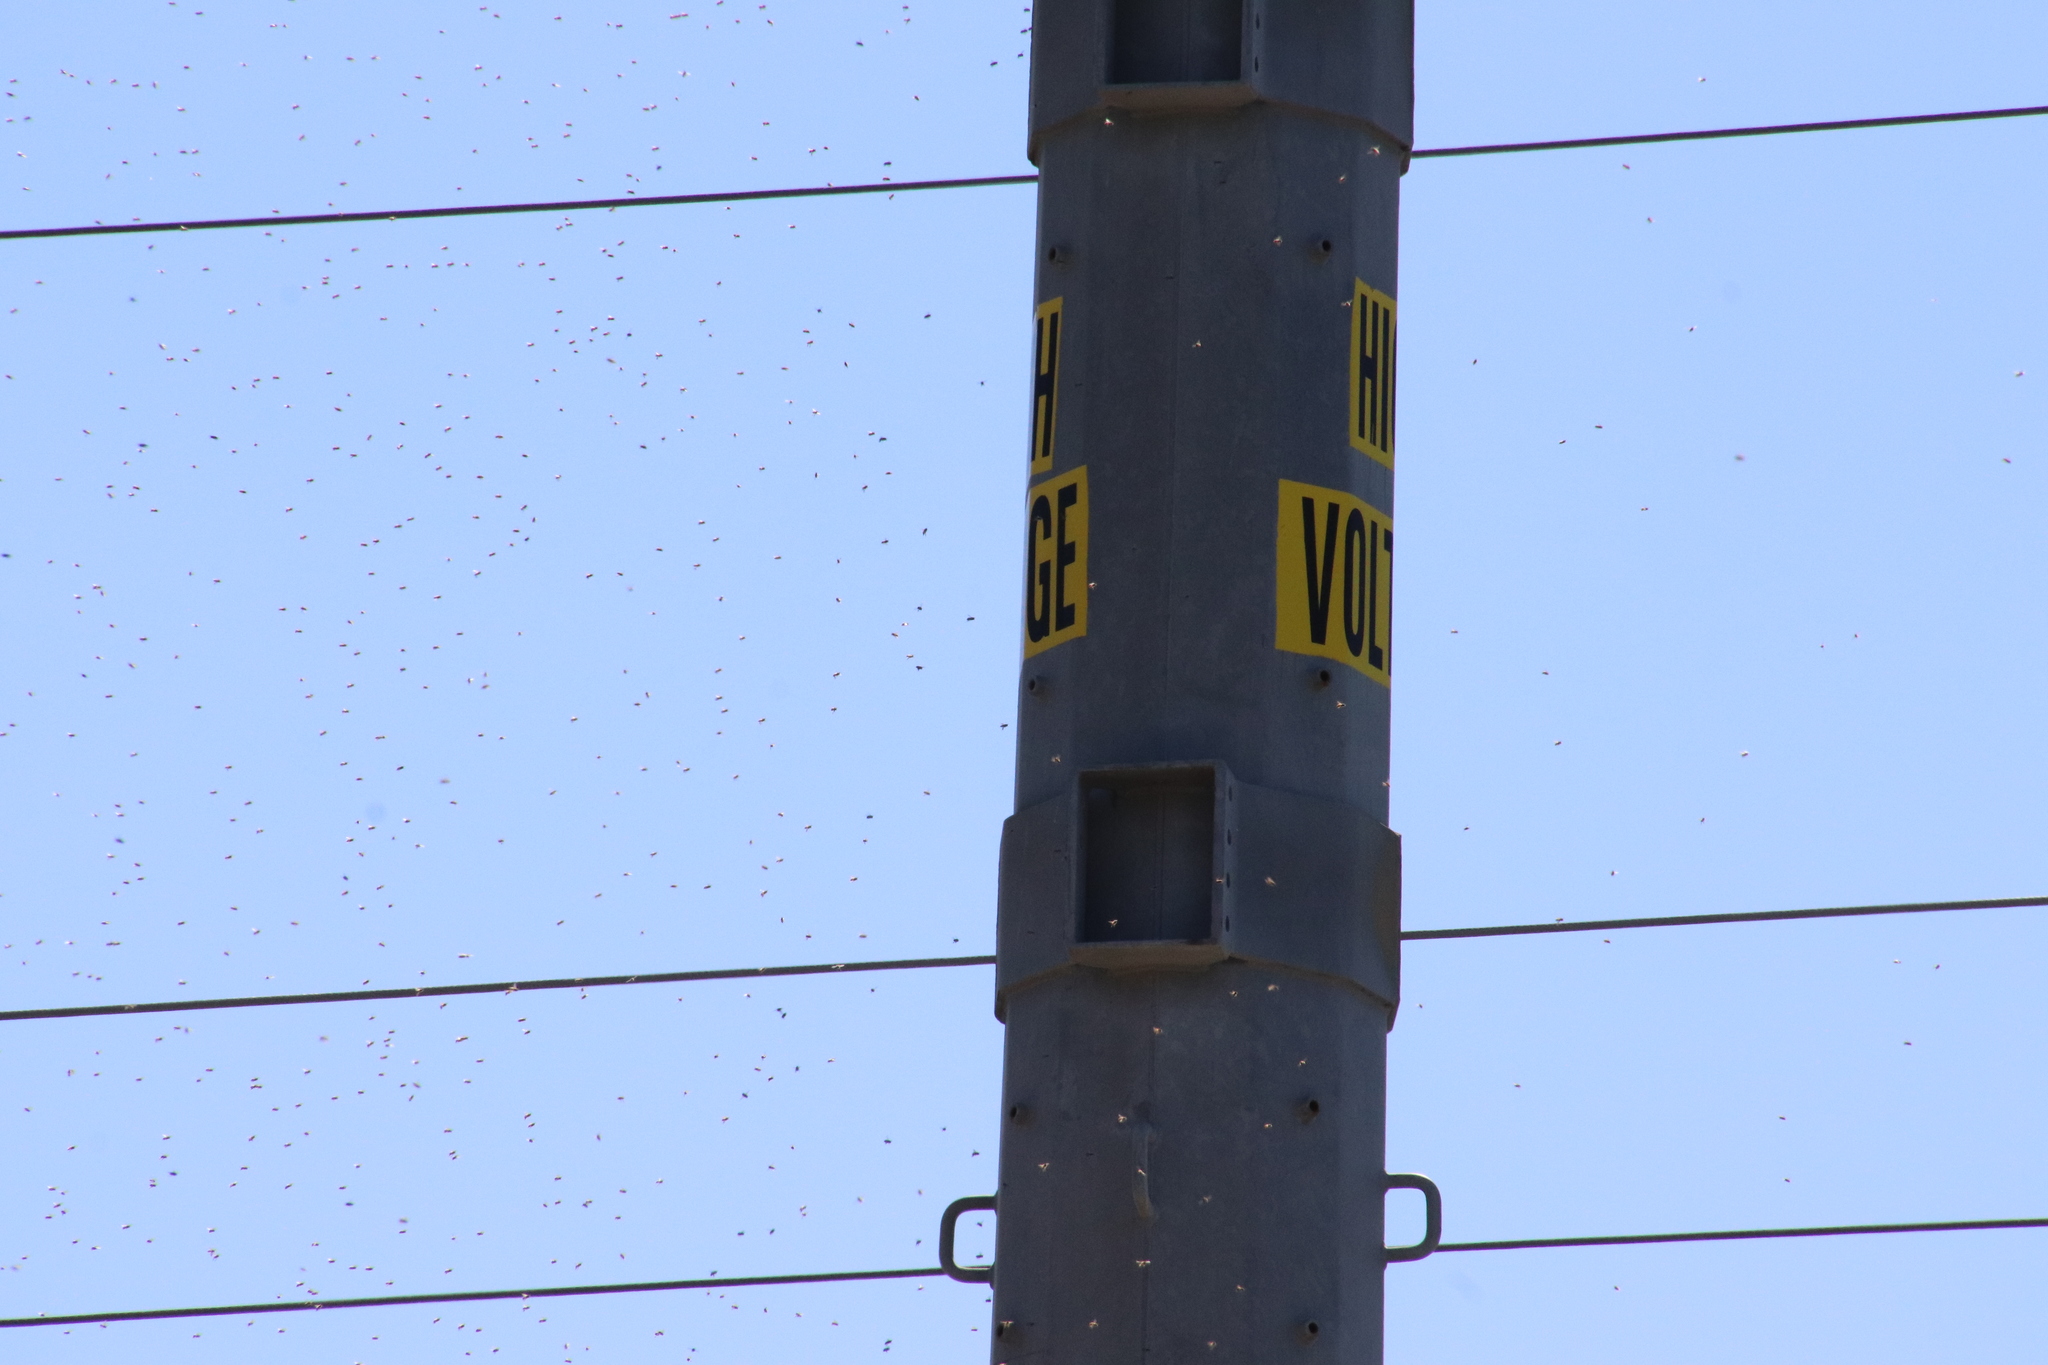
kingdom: Animalia
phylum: Arthropoda
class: Insecta
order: Hymenoptera
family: Apidae
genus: Apis
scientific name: Apis mellifera
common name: Honey bee
